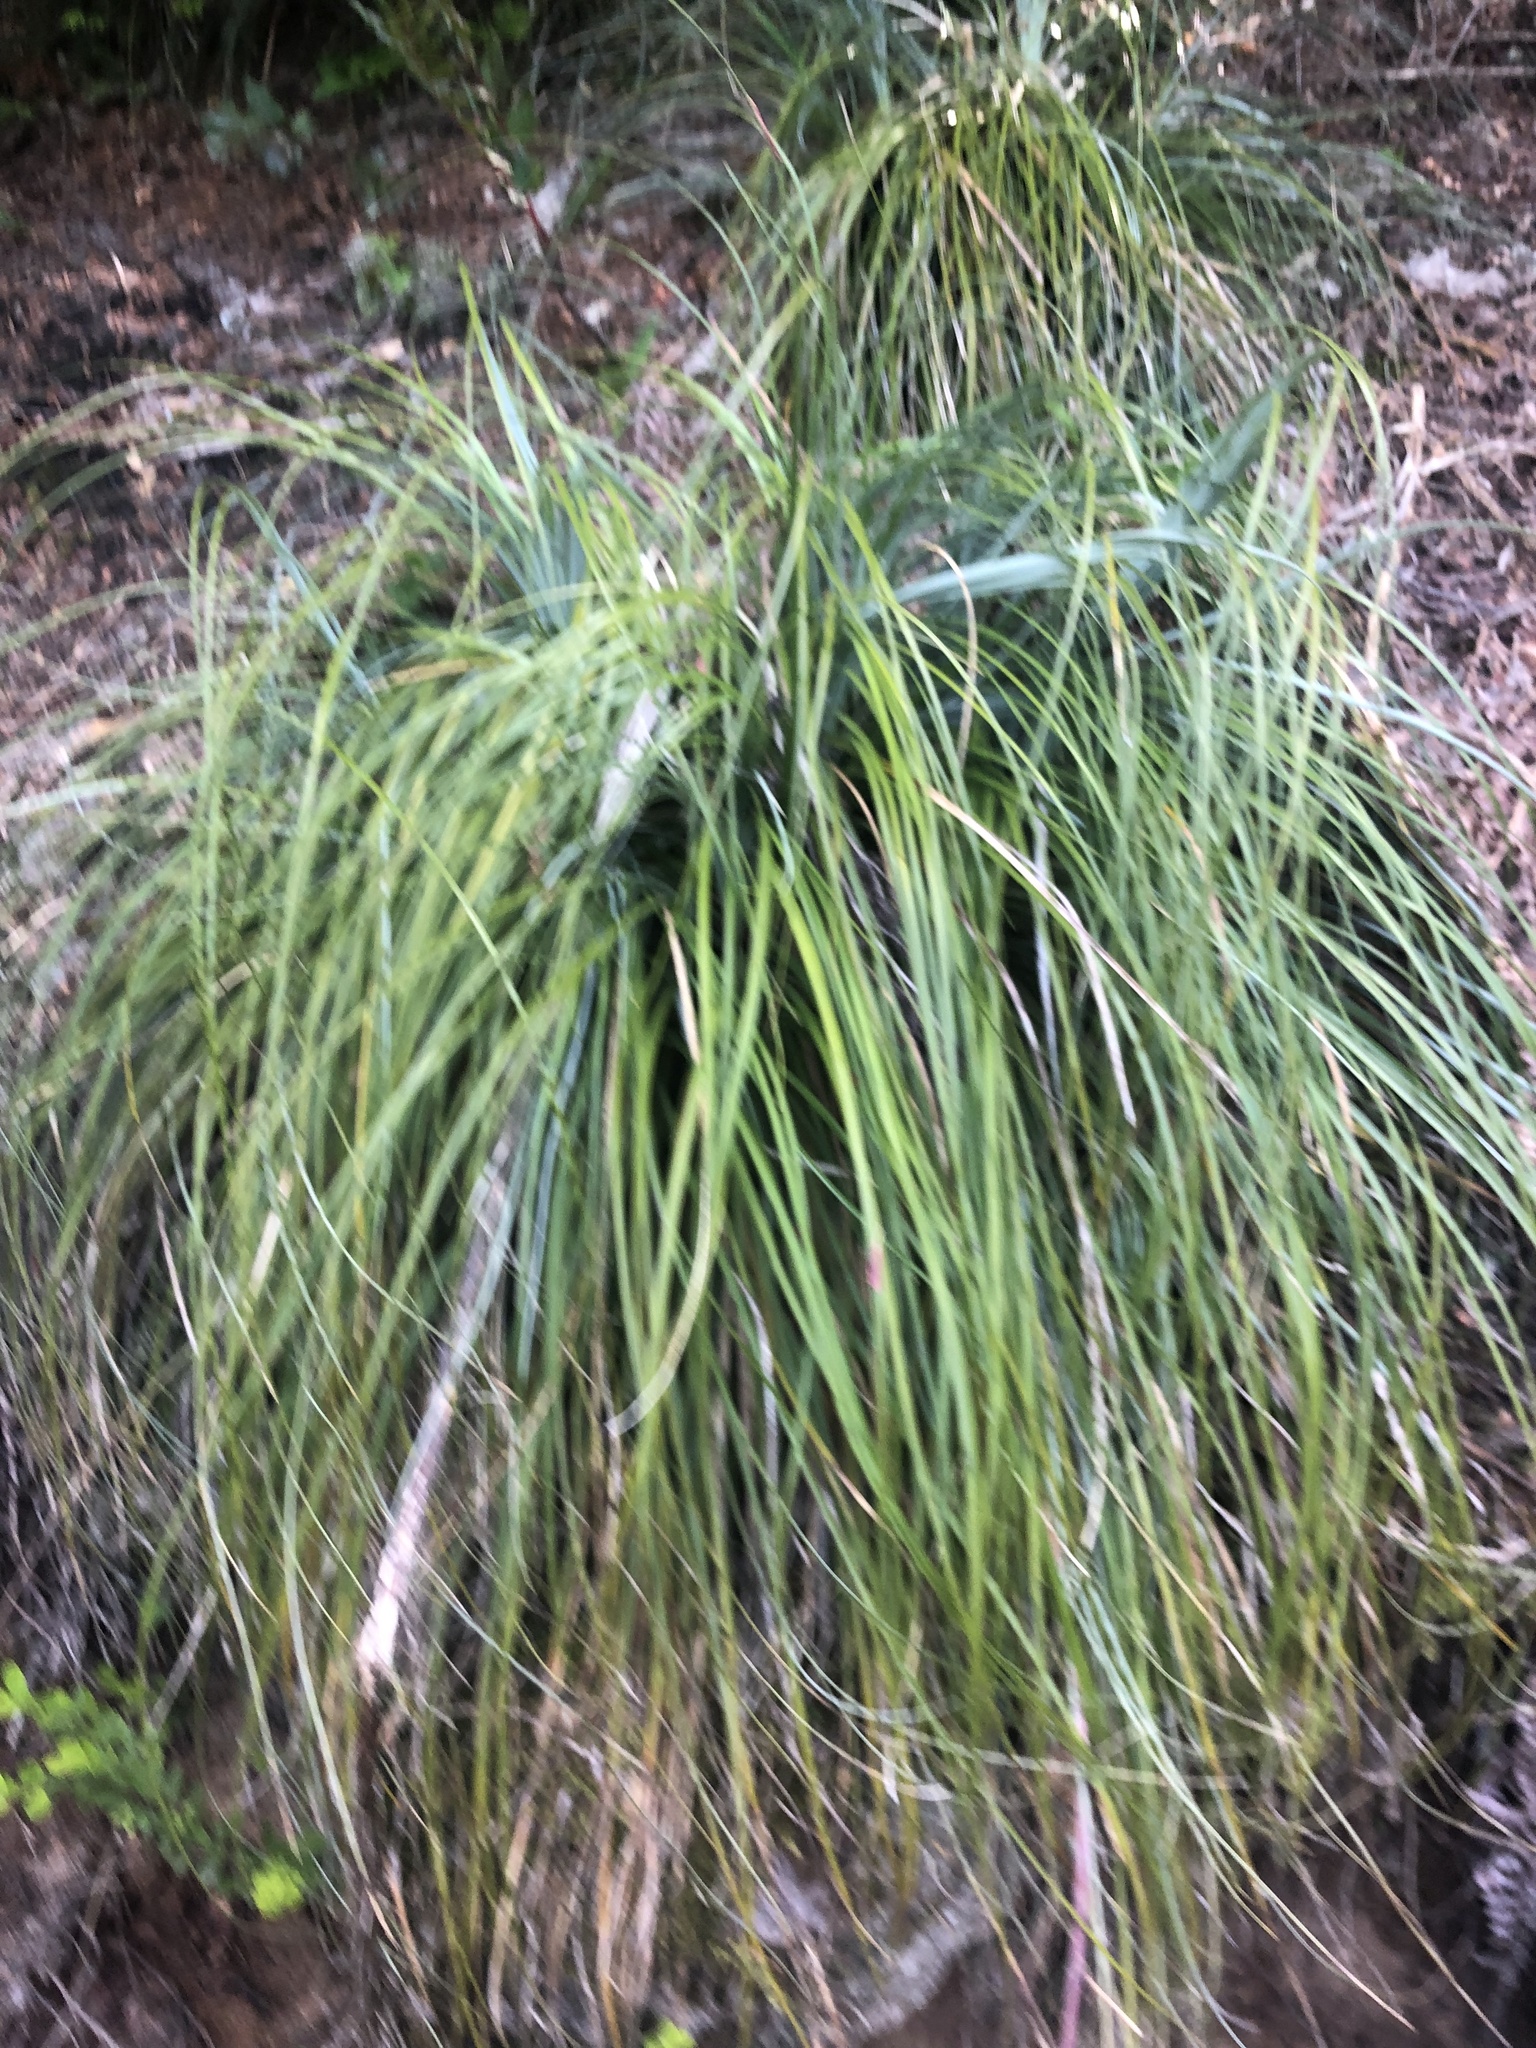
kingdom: Plantae
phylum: Tracheophyta
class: Liliopsida
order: Liliales
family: Melanthiaceae
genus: Xerophyllum
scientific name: Xerophyllum tenax
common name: Bear-grass
